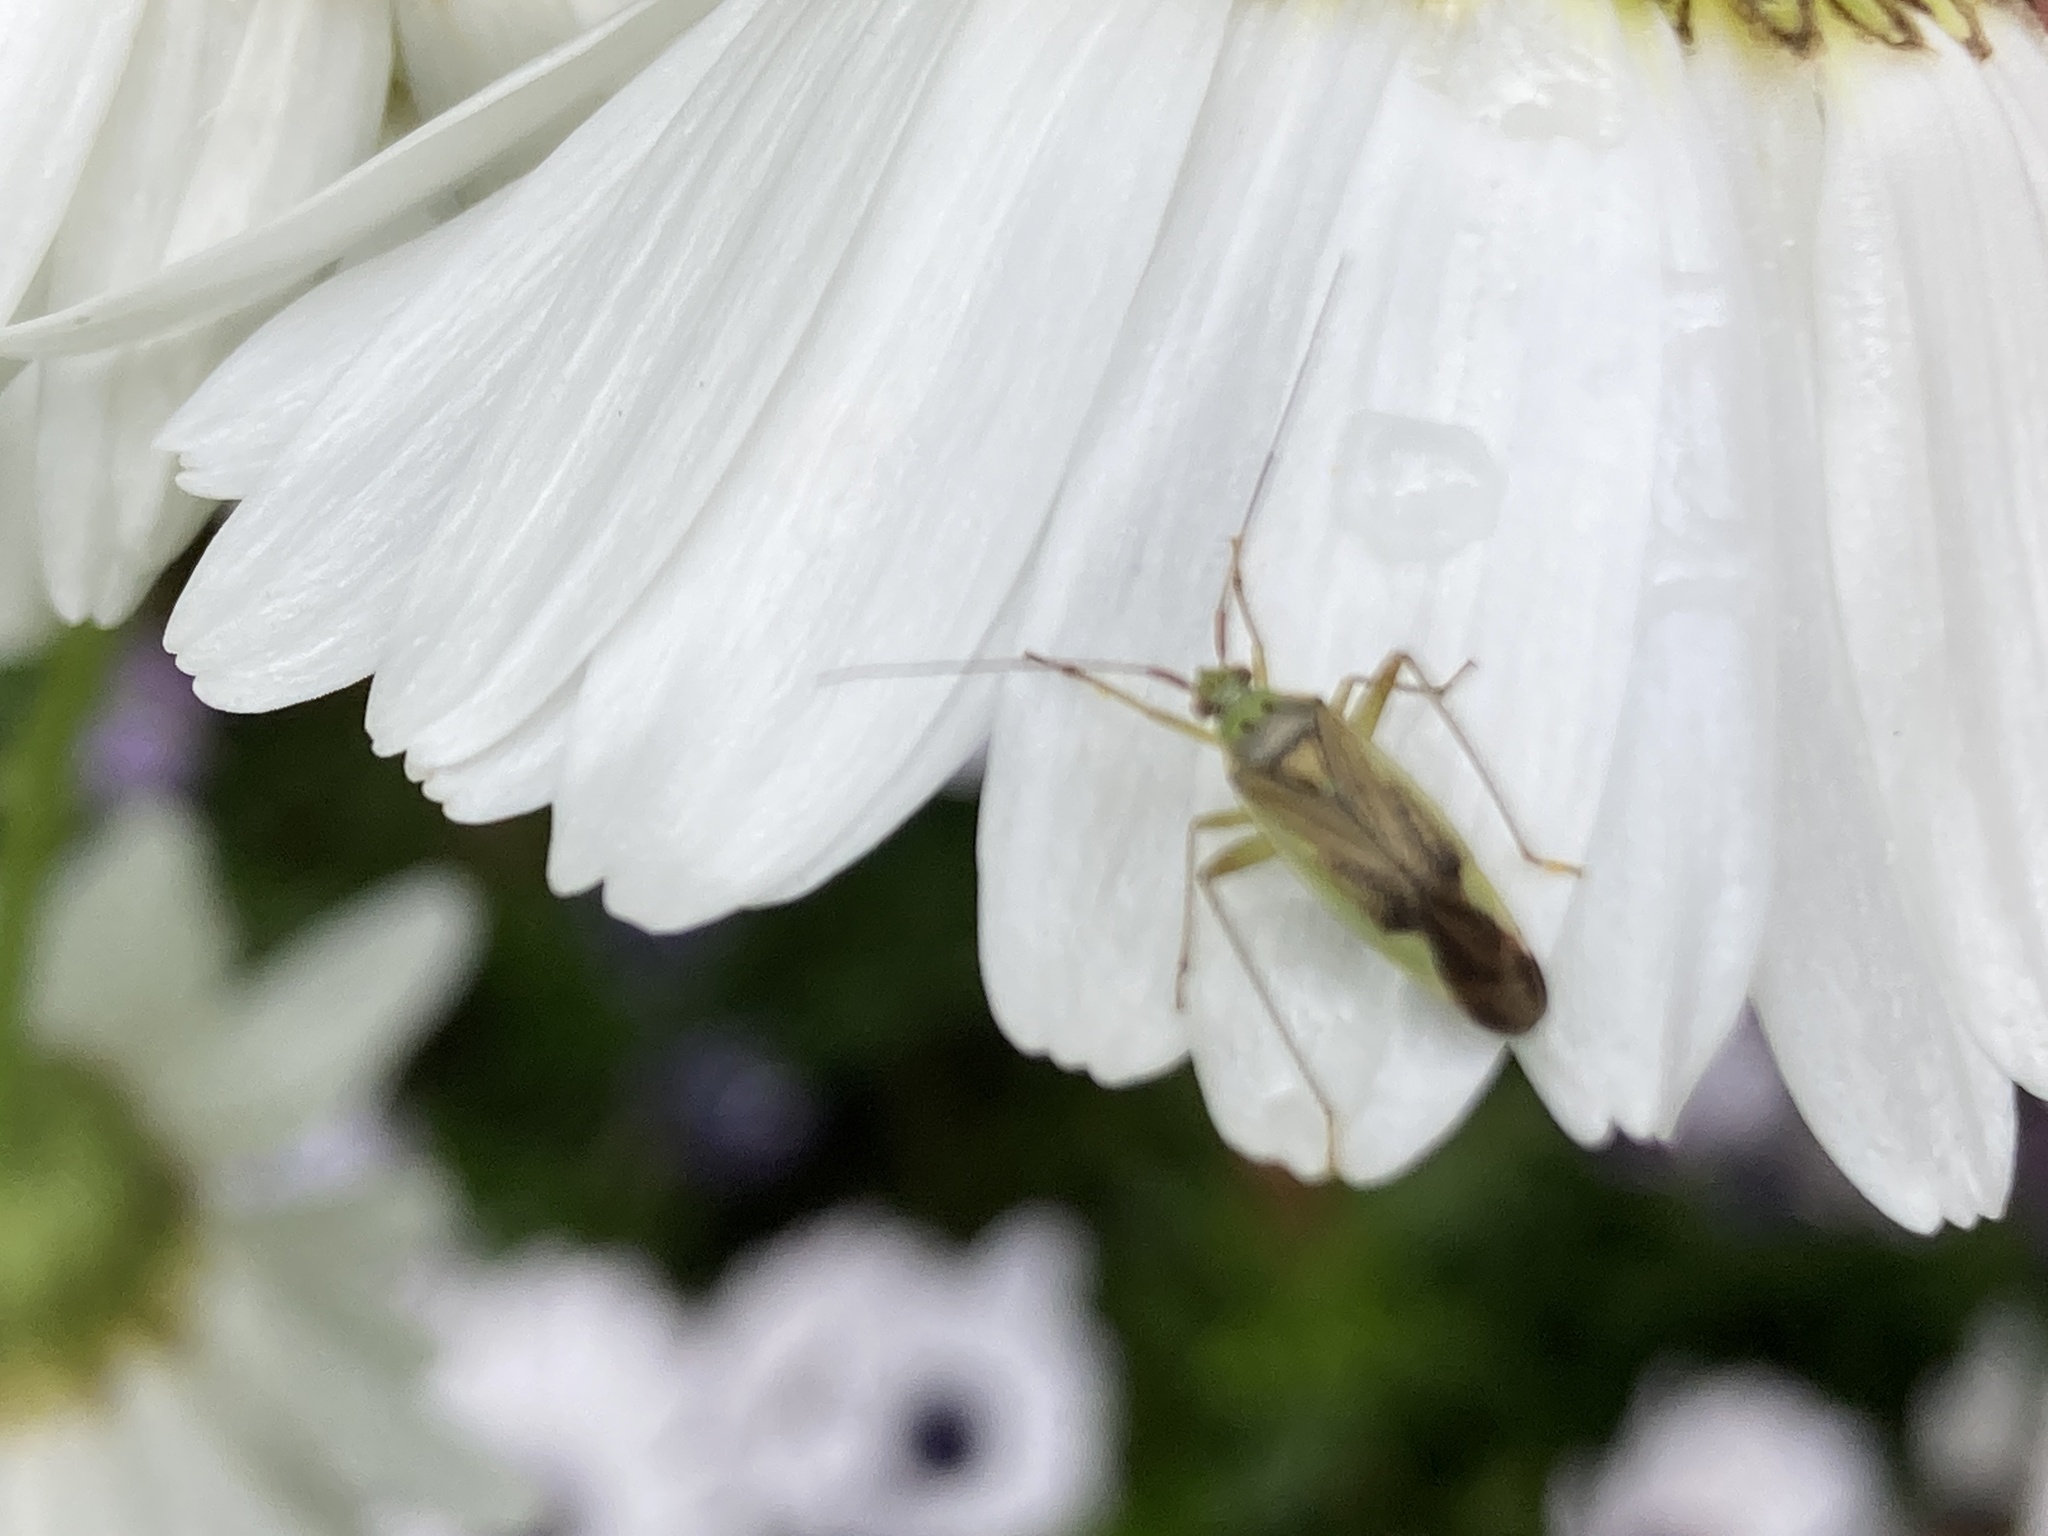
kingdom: Animalia
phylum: Arthropoda
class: Insecta
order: Hemiptera
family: Miridae
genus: Closterotomus
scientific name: Closterotomus trivialis
